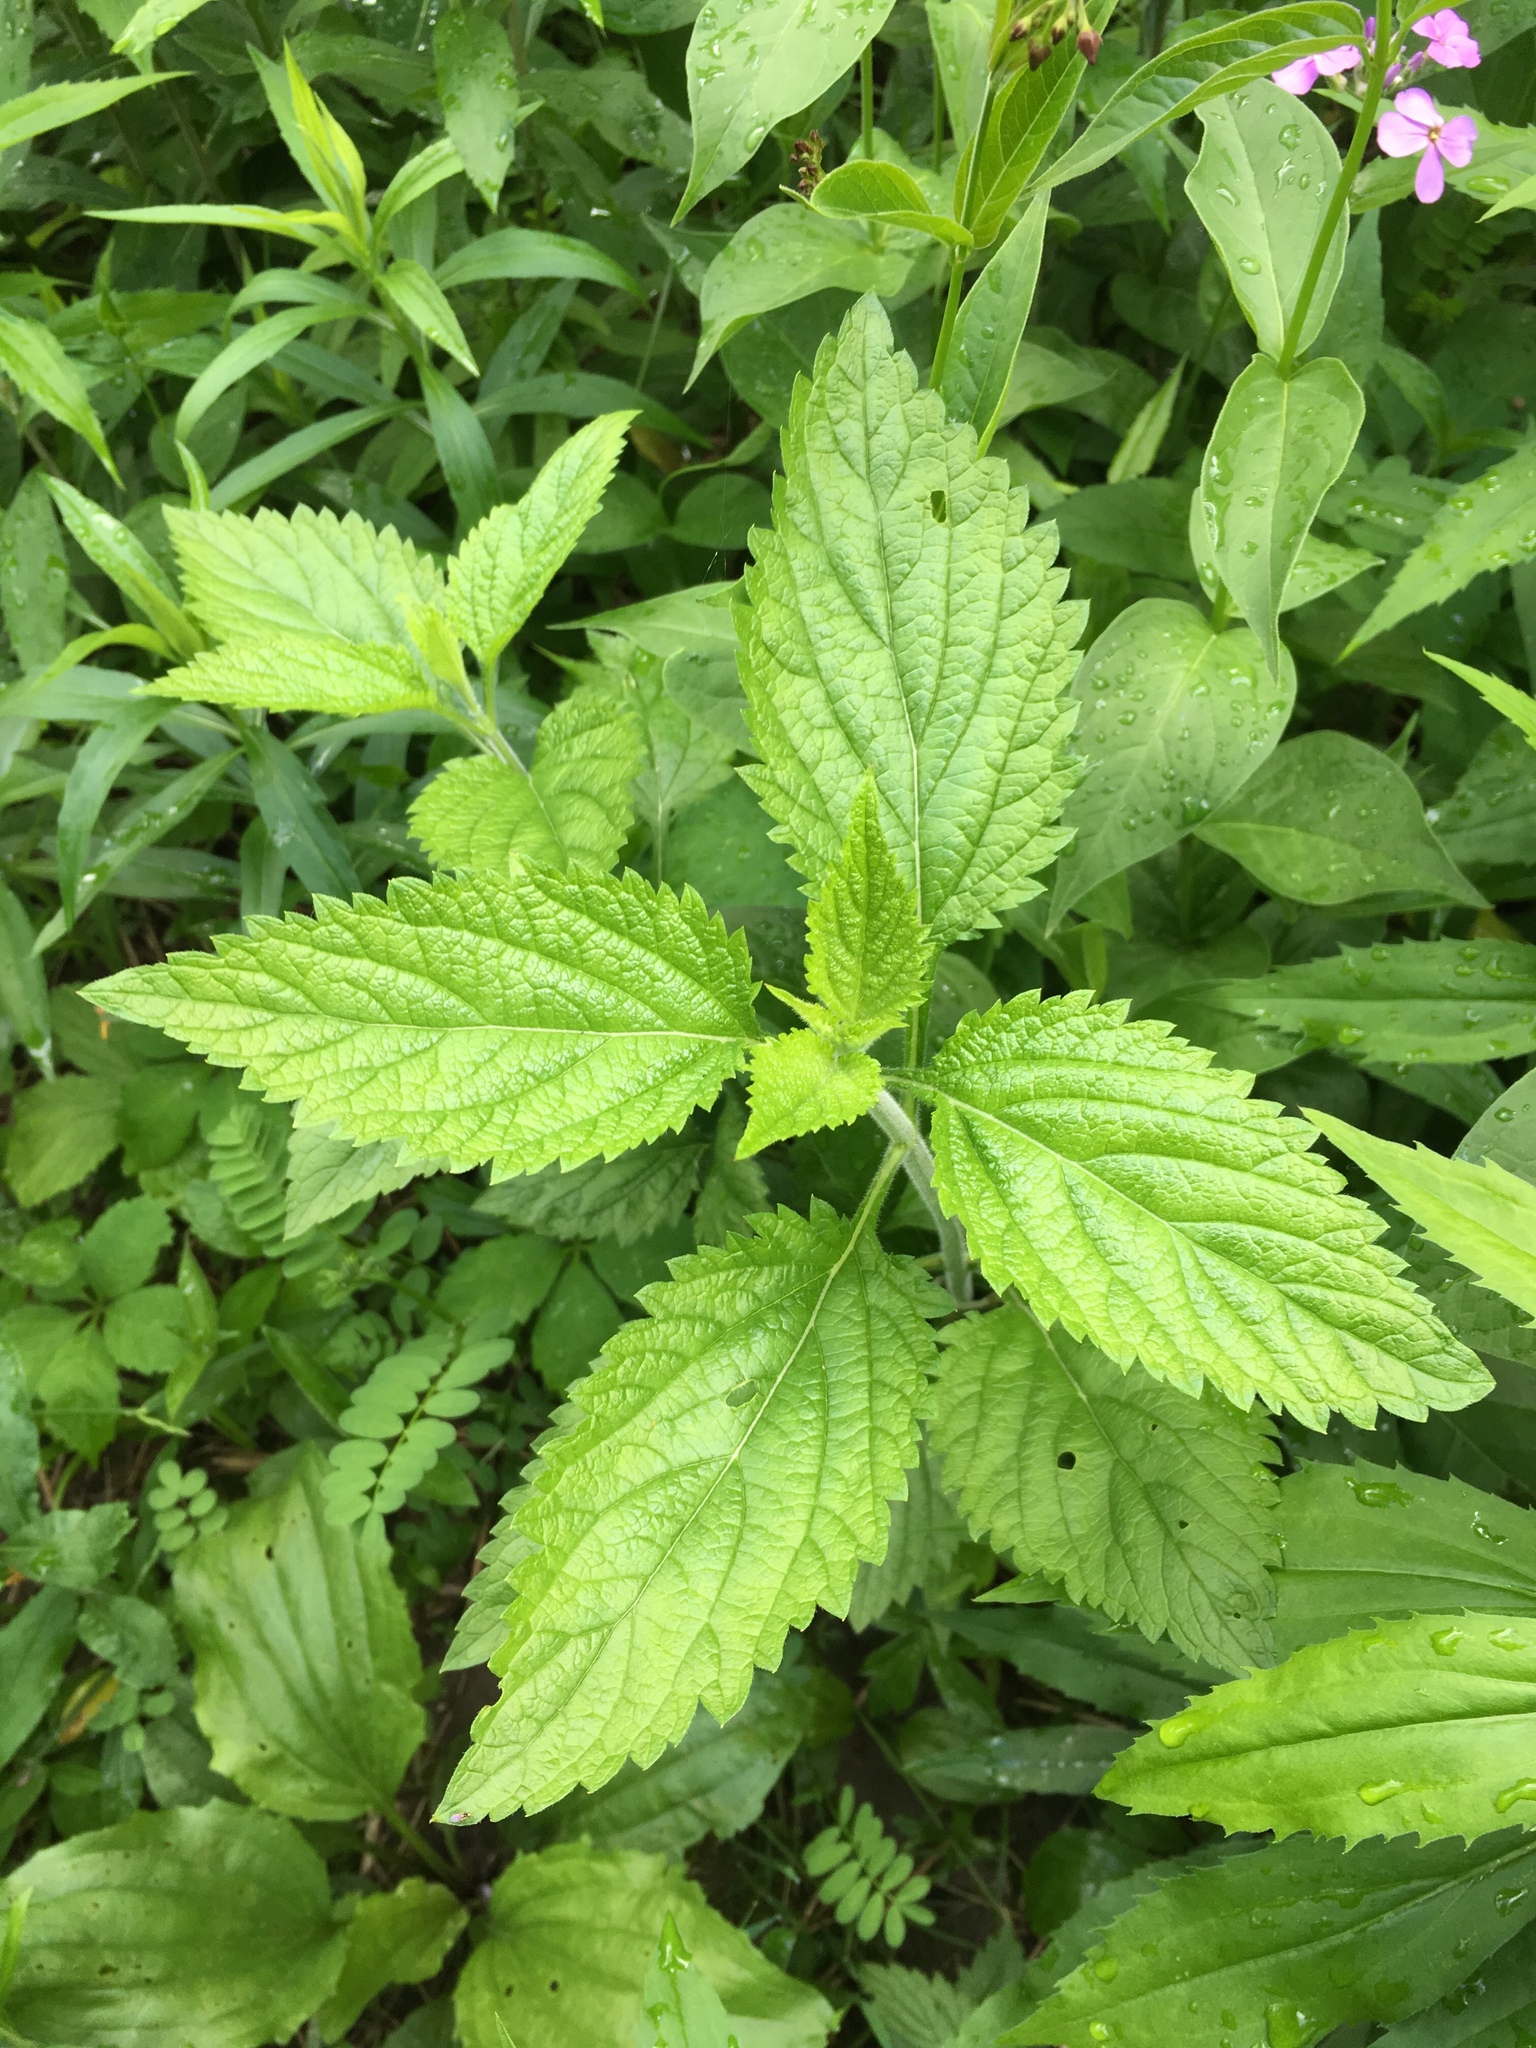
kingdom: Plantae
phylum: Tracheophyta
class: Magnoliopsida
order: Lamiales
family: Verbenaceae
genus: Verbena
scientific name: Verbena urticifolia
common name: Nettle-leaved vervain
